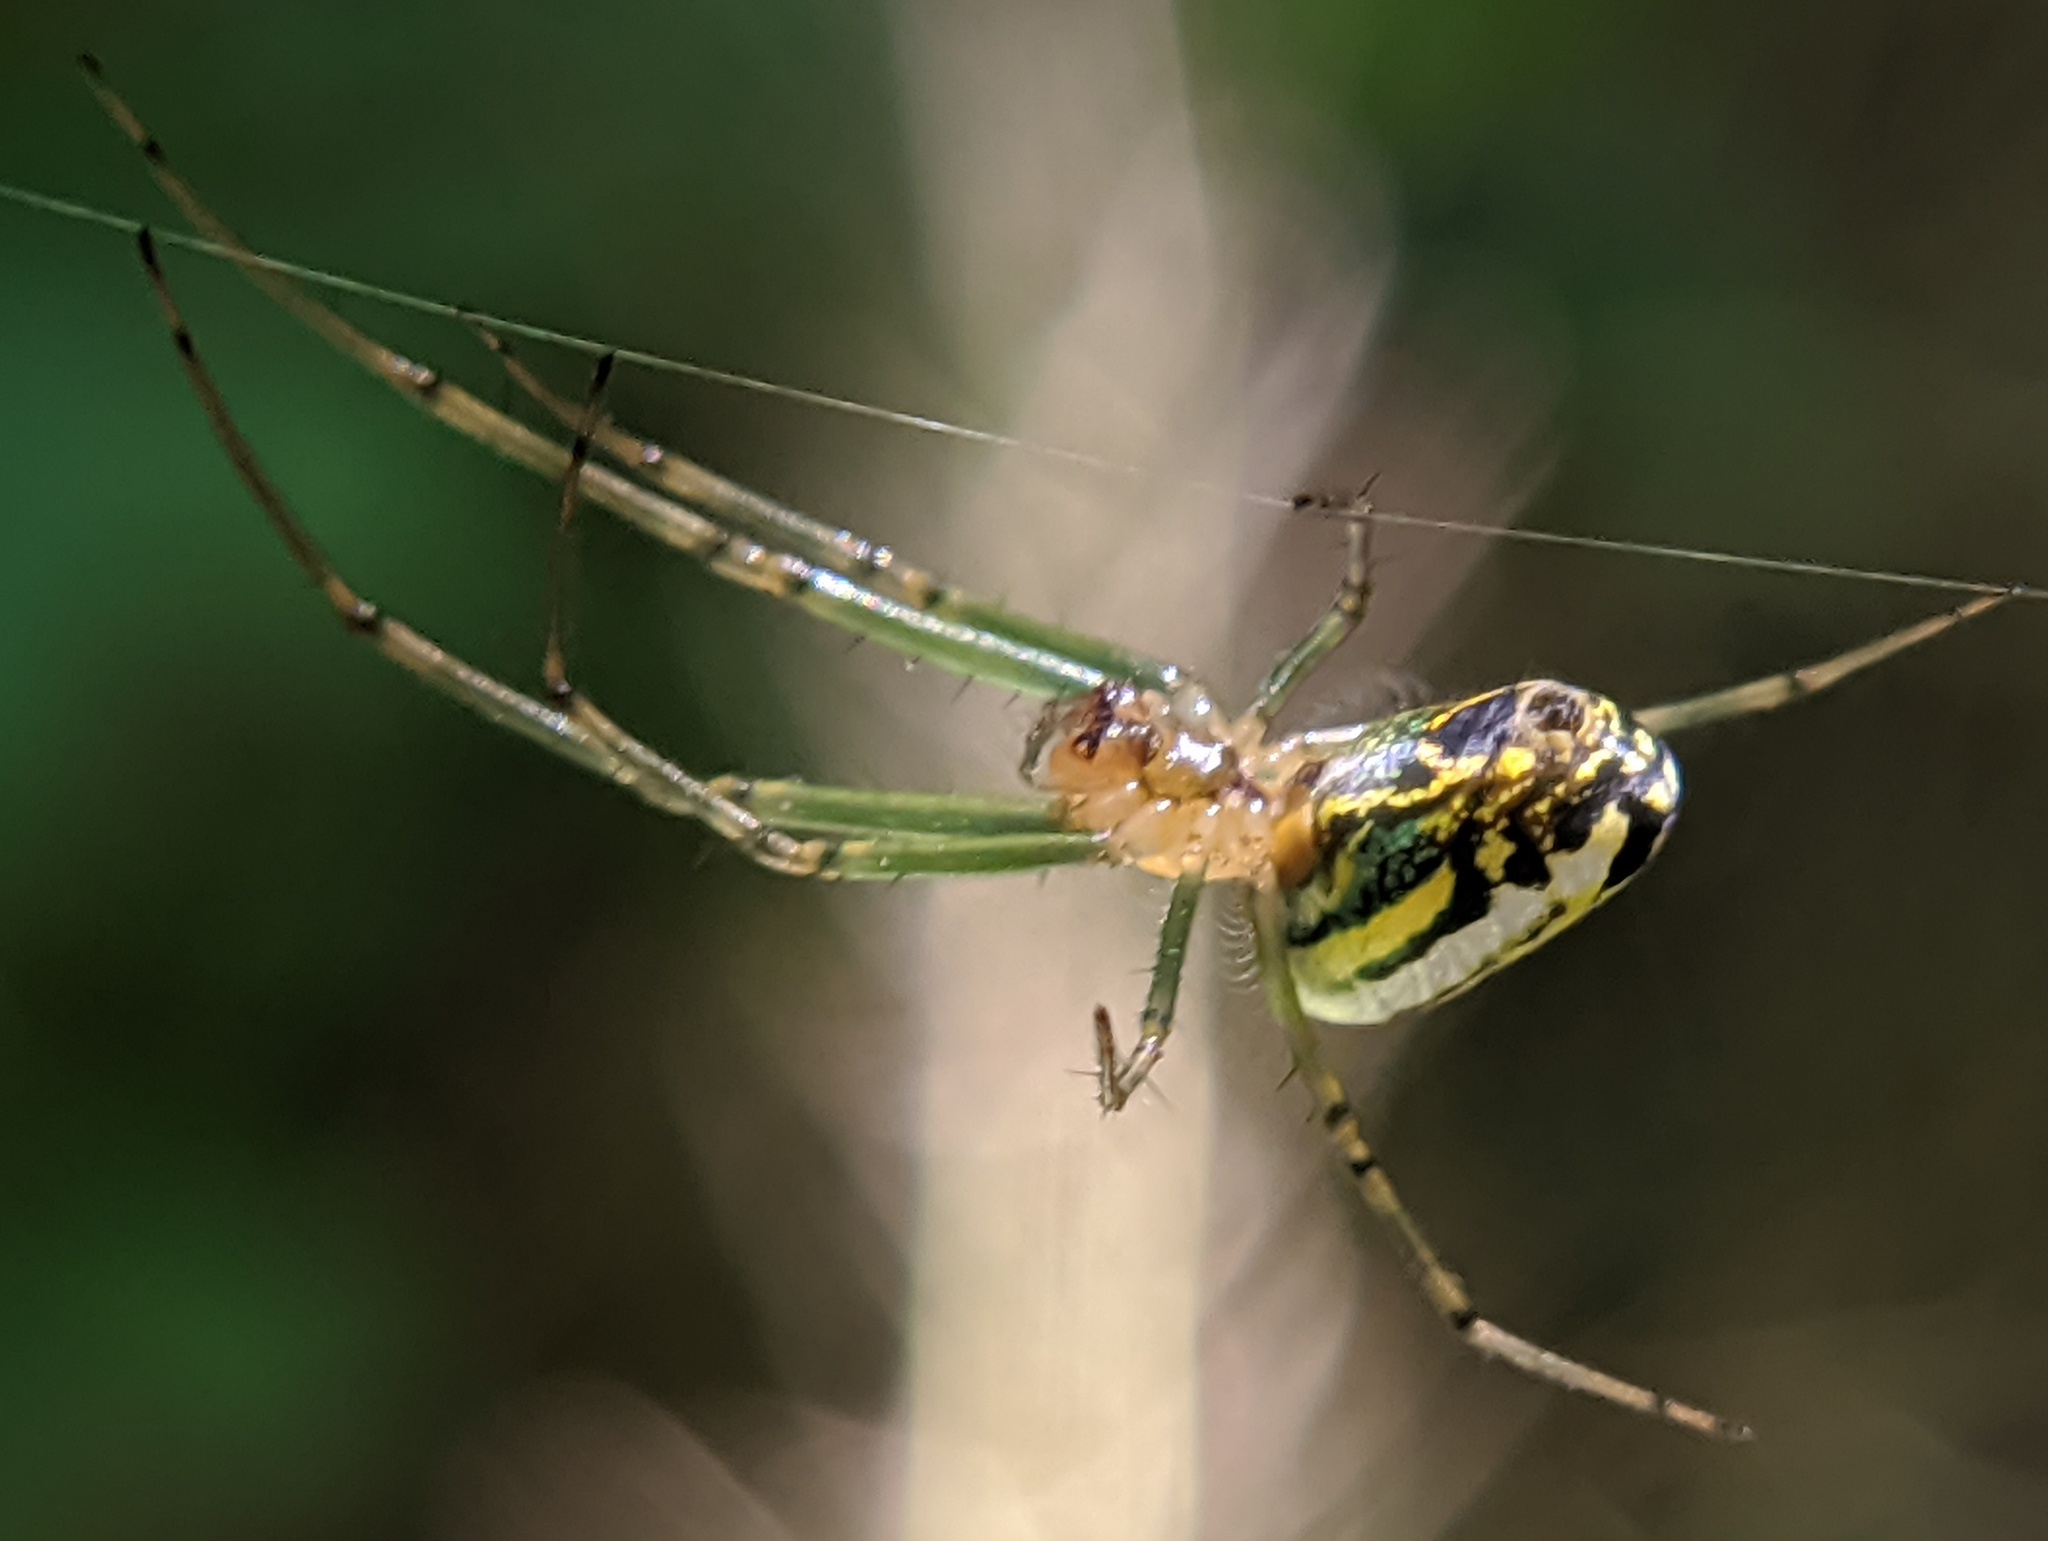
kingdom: Animalia
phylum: Arthropoda
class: Arachnida
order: Araneae
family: Tetragnathidae
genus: Leucauge
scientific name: Leucauge venusta
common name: Longjawed orb weavers
